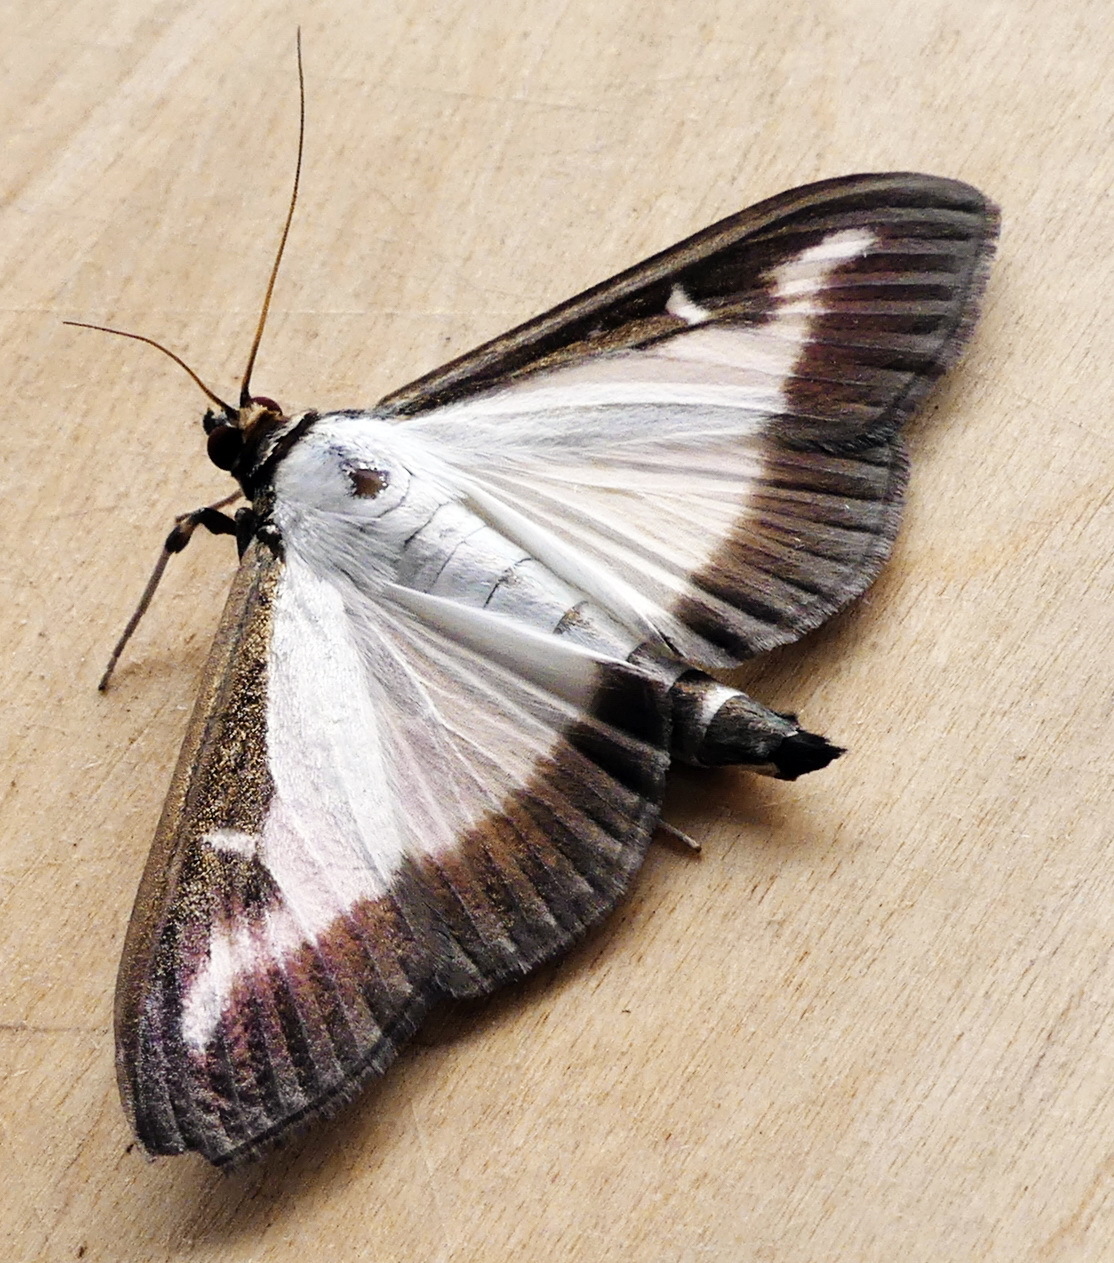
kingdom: Animalia
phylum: Arthropoda
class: Insecta
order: Lepidoptera
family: Crambidae
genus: Cydalima
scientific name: Cydalima perspectalis
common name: Box tree moth
